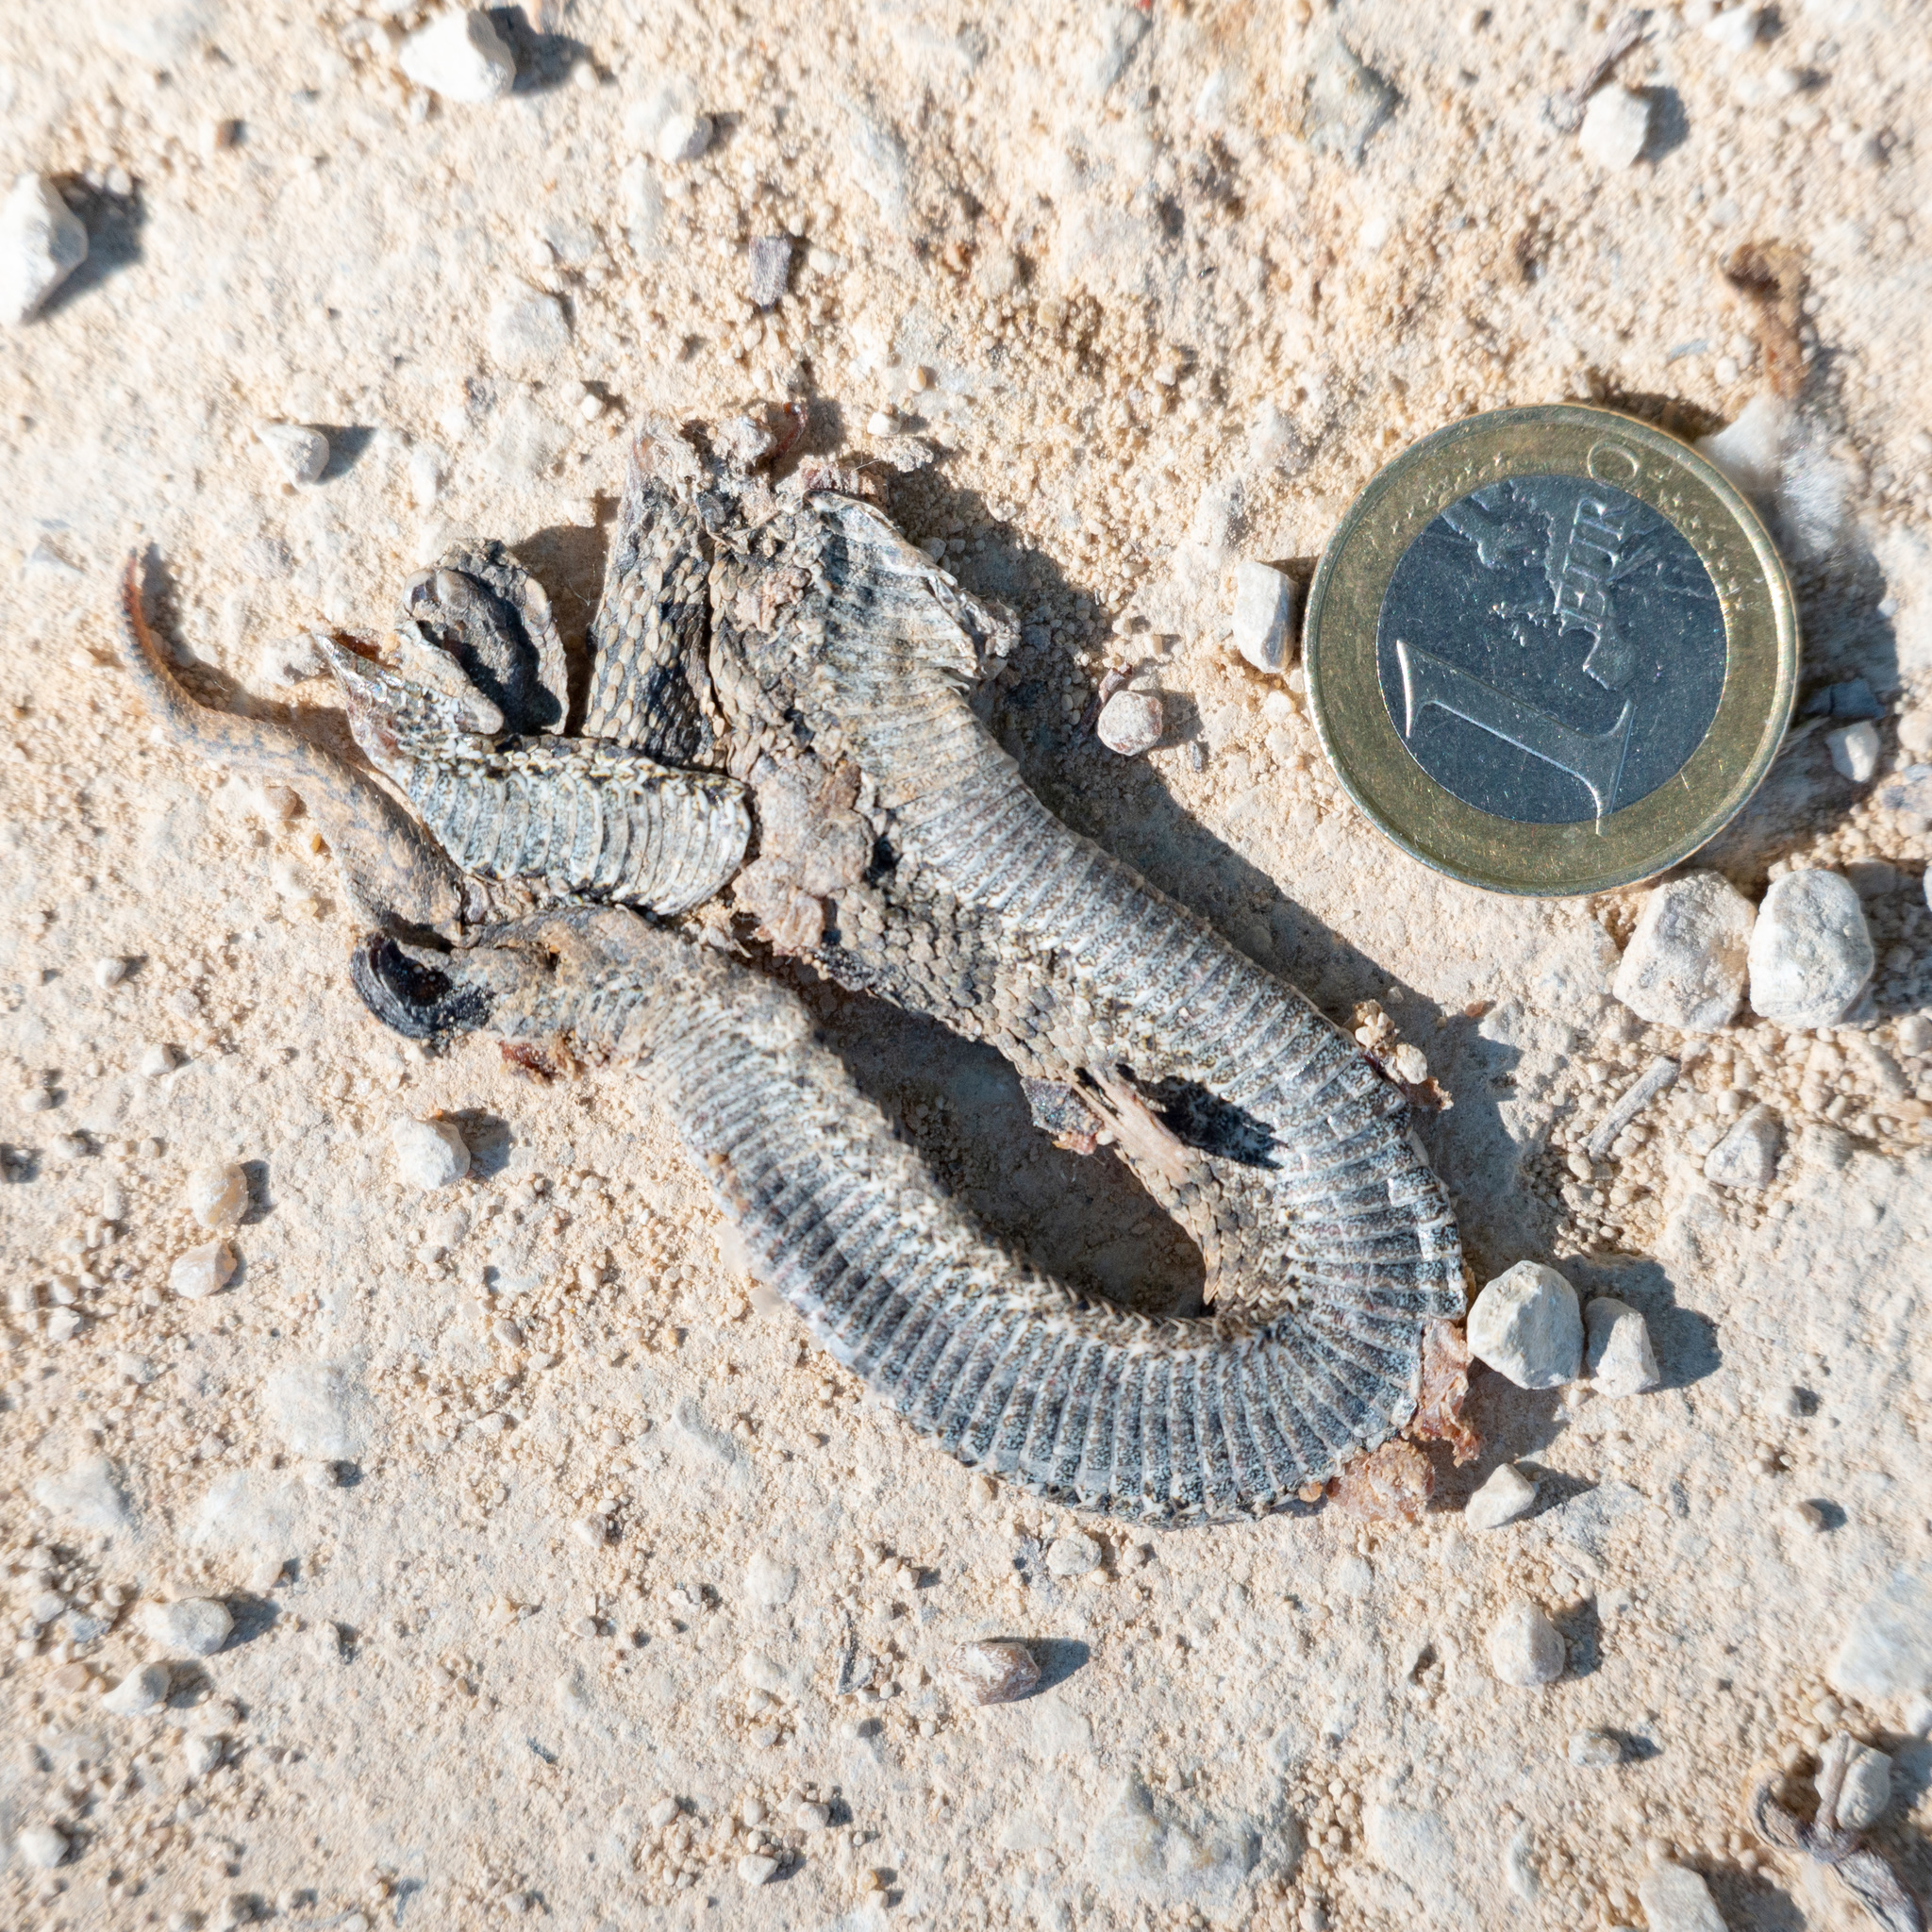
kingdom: Animalia
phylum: Chordata
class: Squamata
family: Viperidae
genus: Vipera
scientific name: Vipera latastei
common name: Lataste's viper
